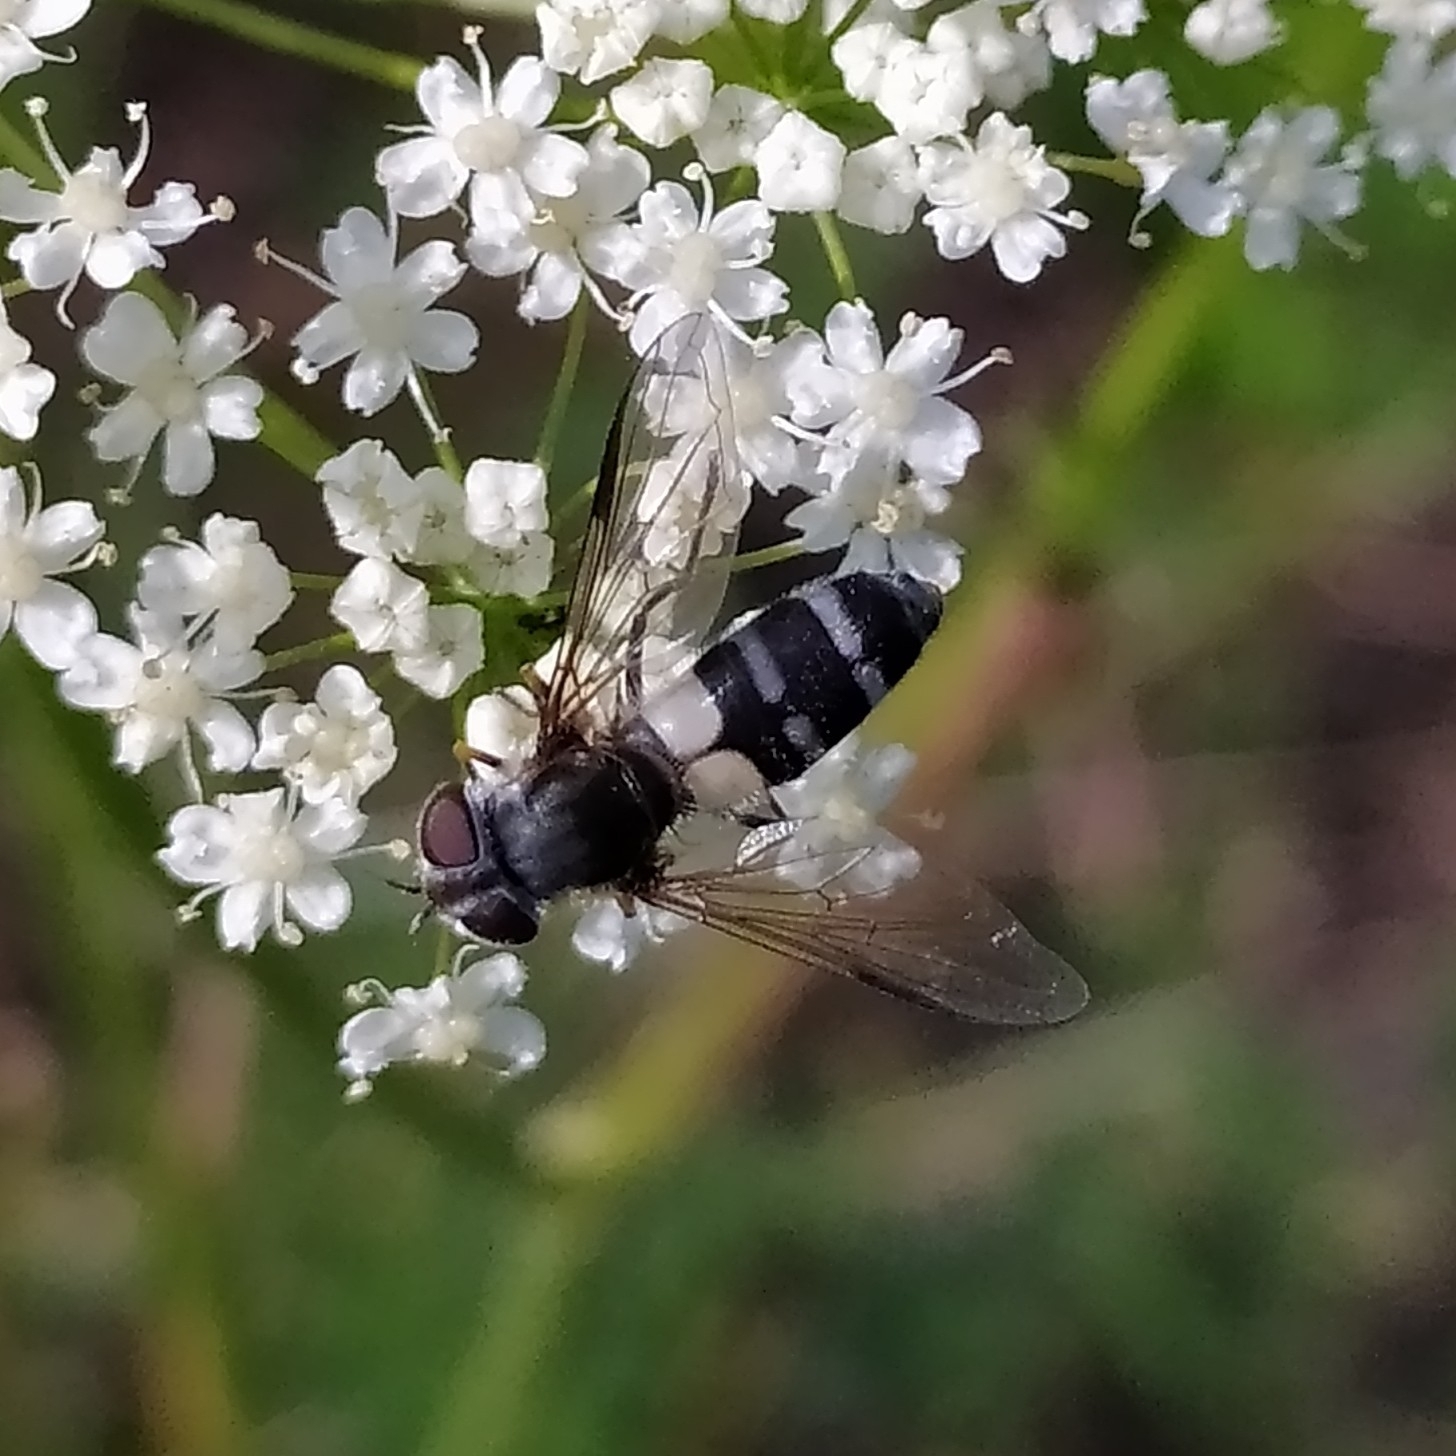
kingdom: Animalia
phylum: Arthropoda
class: Insecta
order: Diptera
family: Syrphidae
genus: Leucozona
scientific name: Leucozona laternaria
